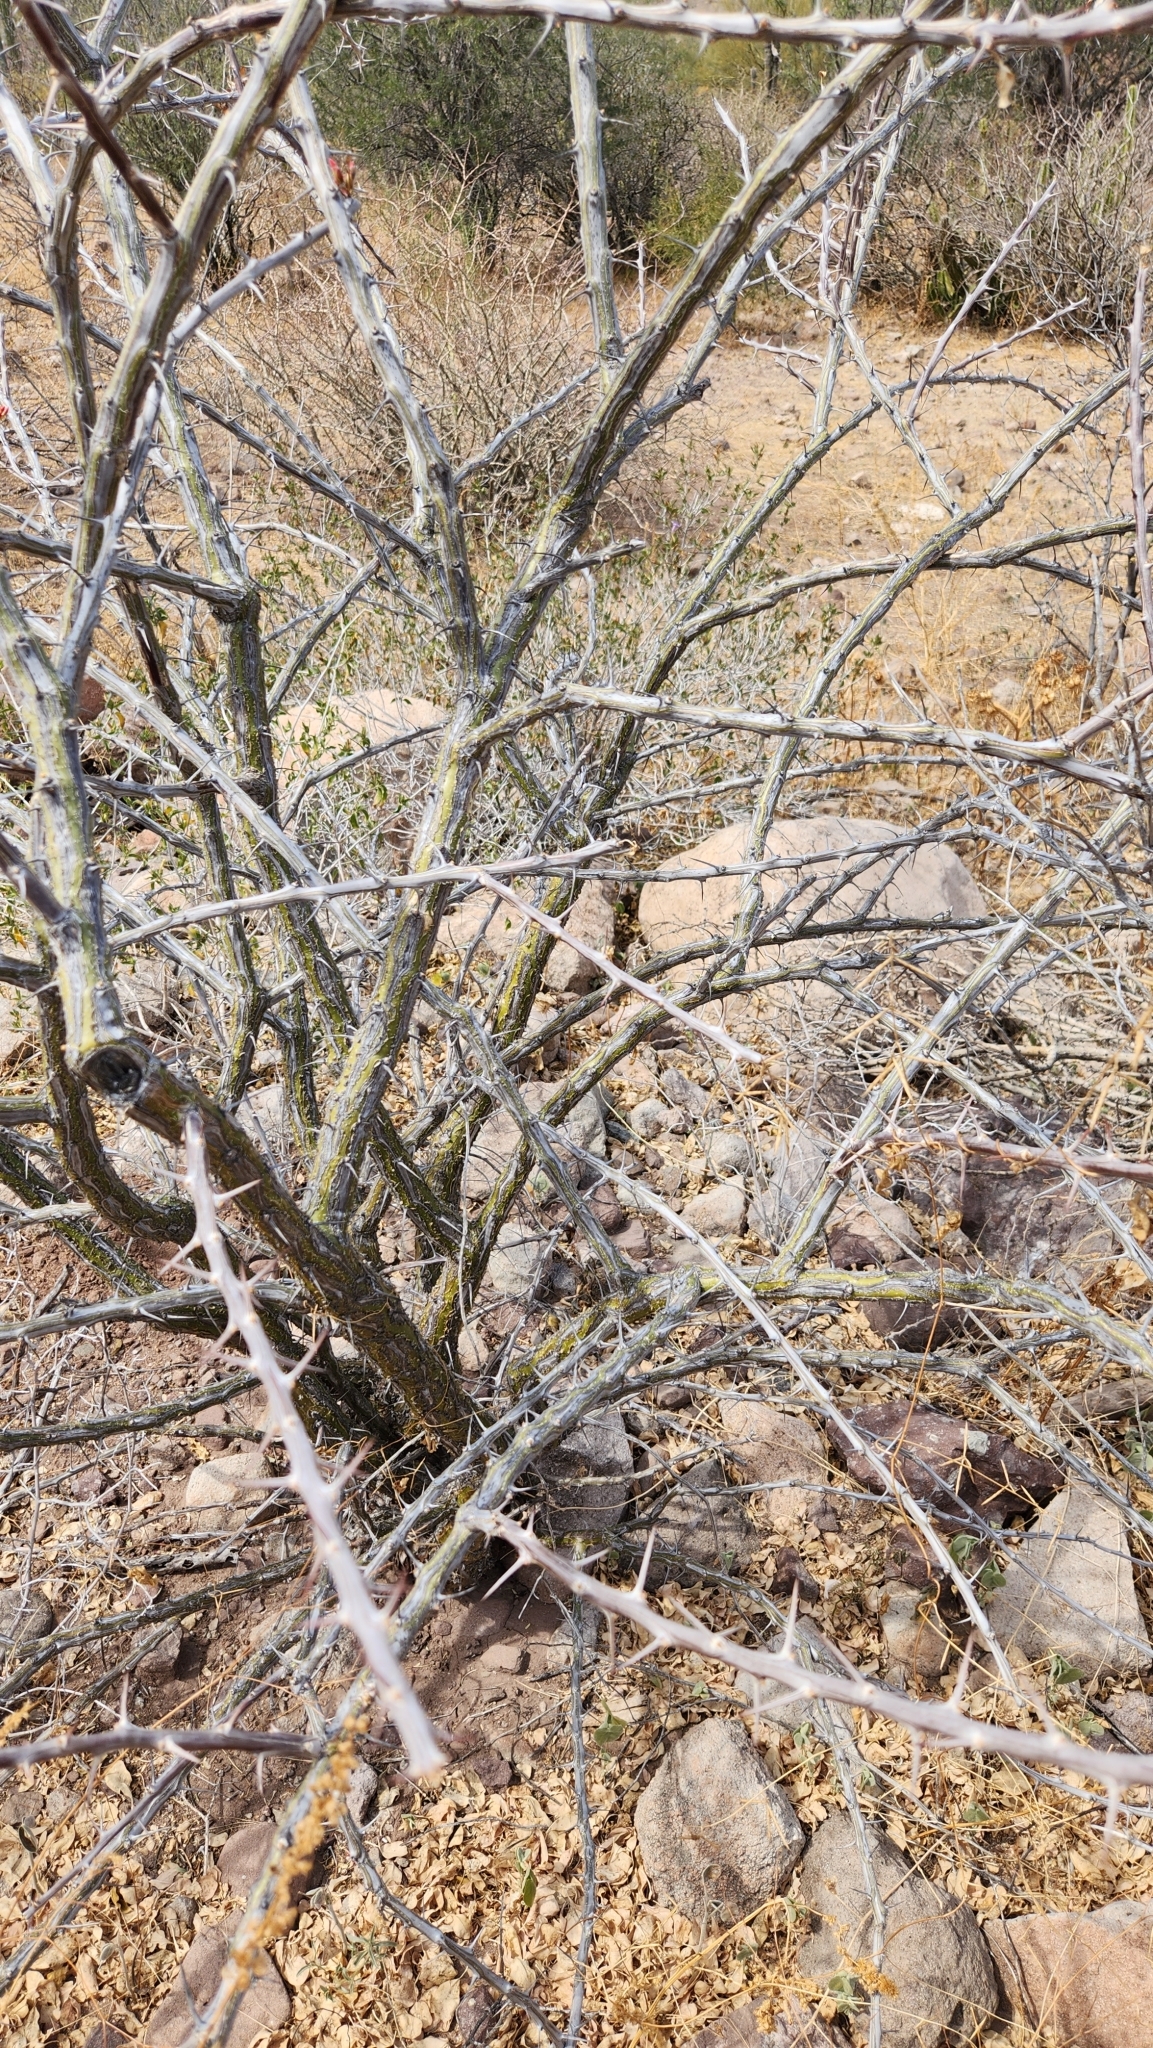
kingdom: Plantae
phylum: Tracheophyta
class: Magnoliopsida
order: Ericales
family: Fouquieriaceae
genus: Fouquieria
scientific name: Fouquieria diguetii
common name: Adam's tree
